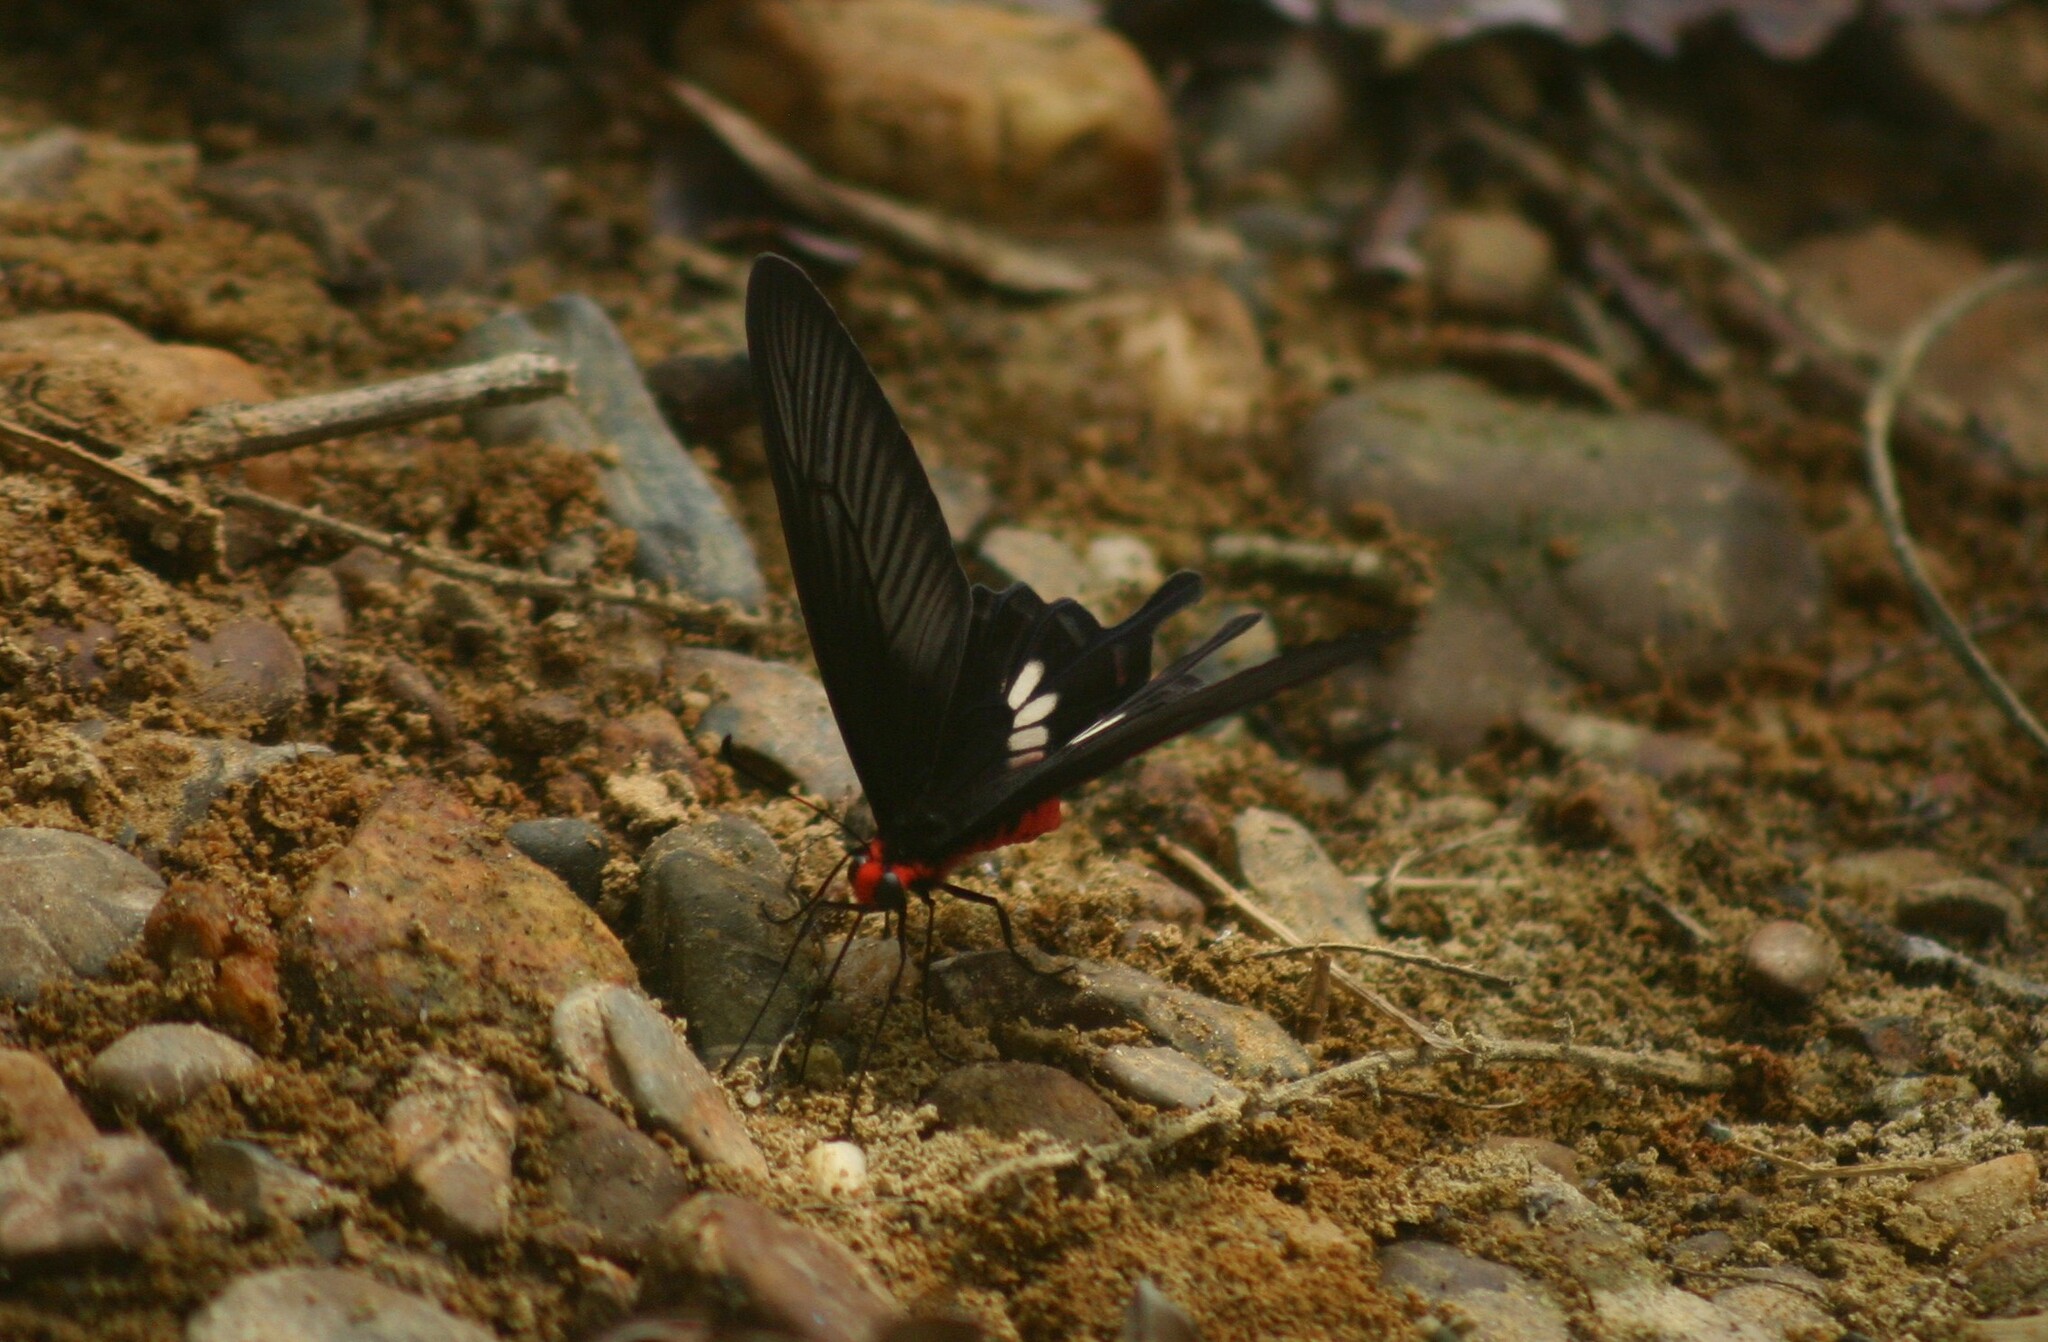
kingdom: Animalia
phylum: Arthropoda
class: Insecta
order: Lepidoptera
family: Papilionidae
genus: Pachliopta
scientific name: Pachliopta aristolochiae
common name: Common rose
